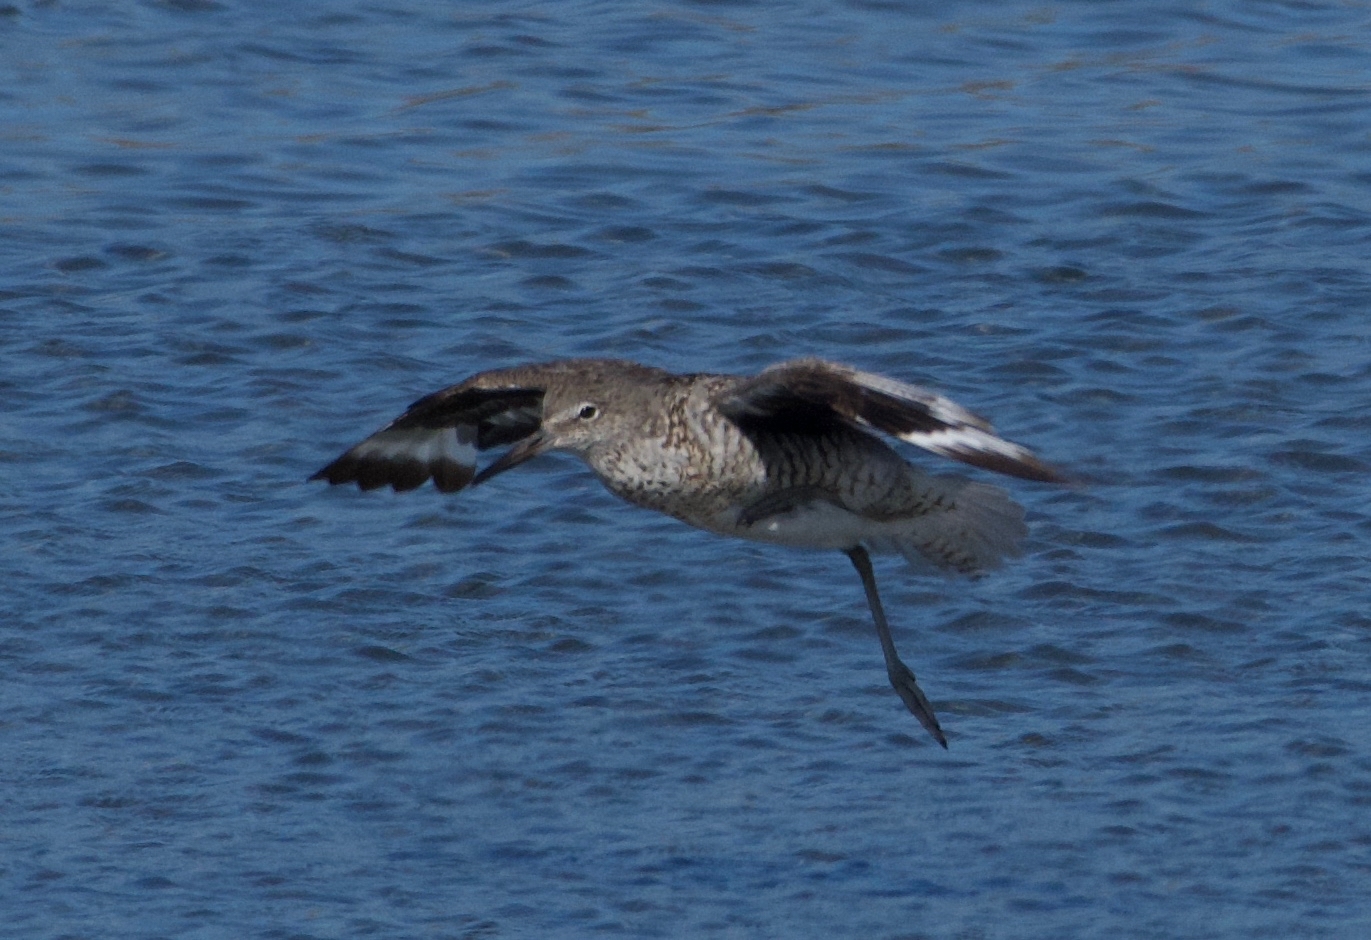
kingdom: Animalia
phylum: Chordata
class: Aves
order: Charadriiformes
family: Scolopacidae
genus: Tringa
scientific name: Tringa semipalmata
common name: Willet
